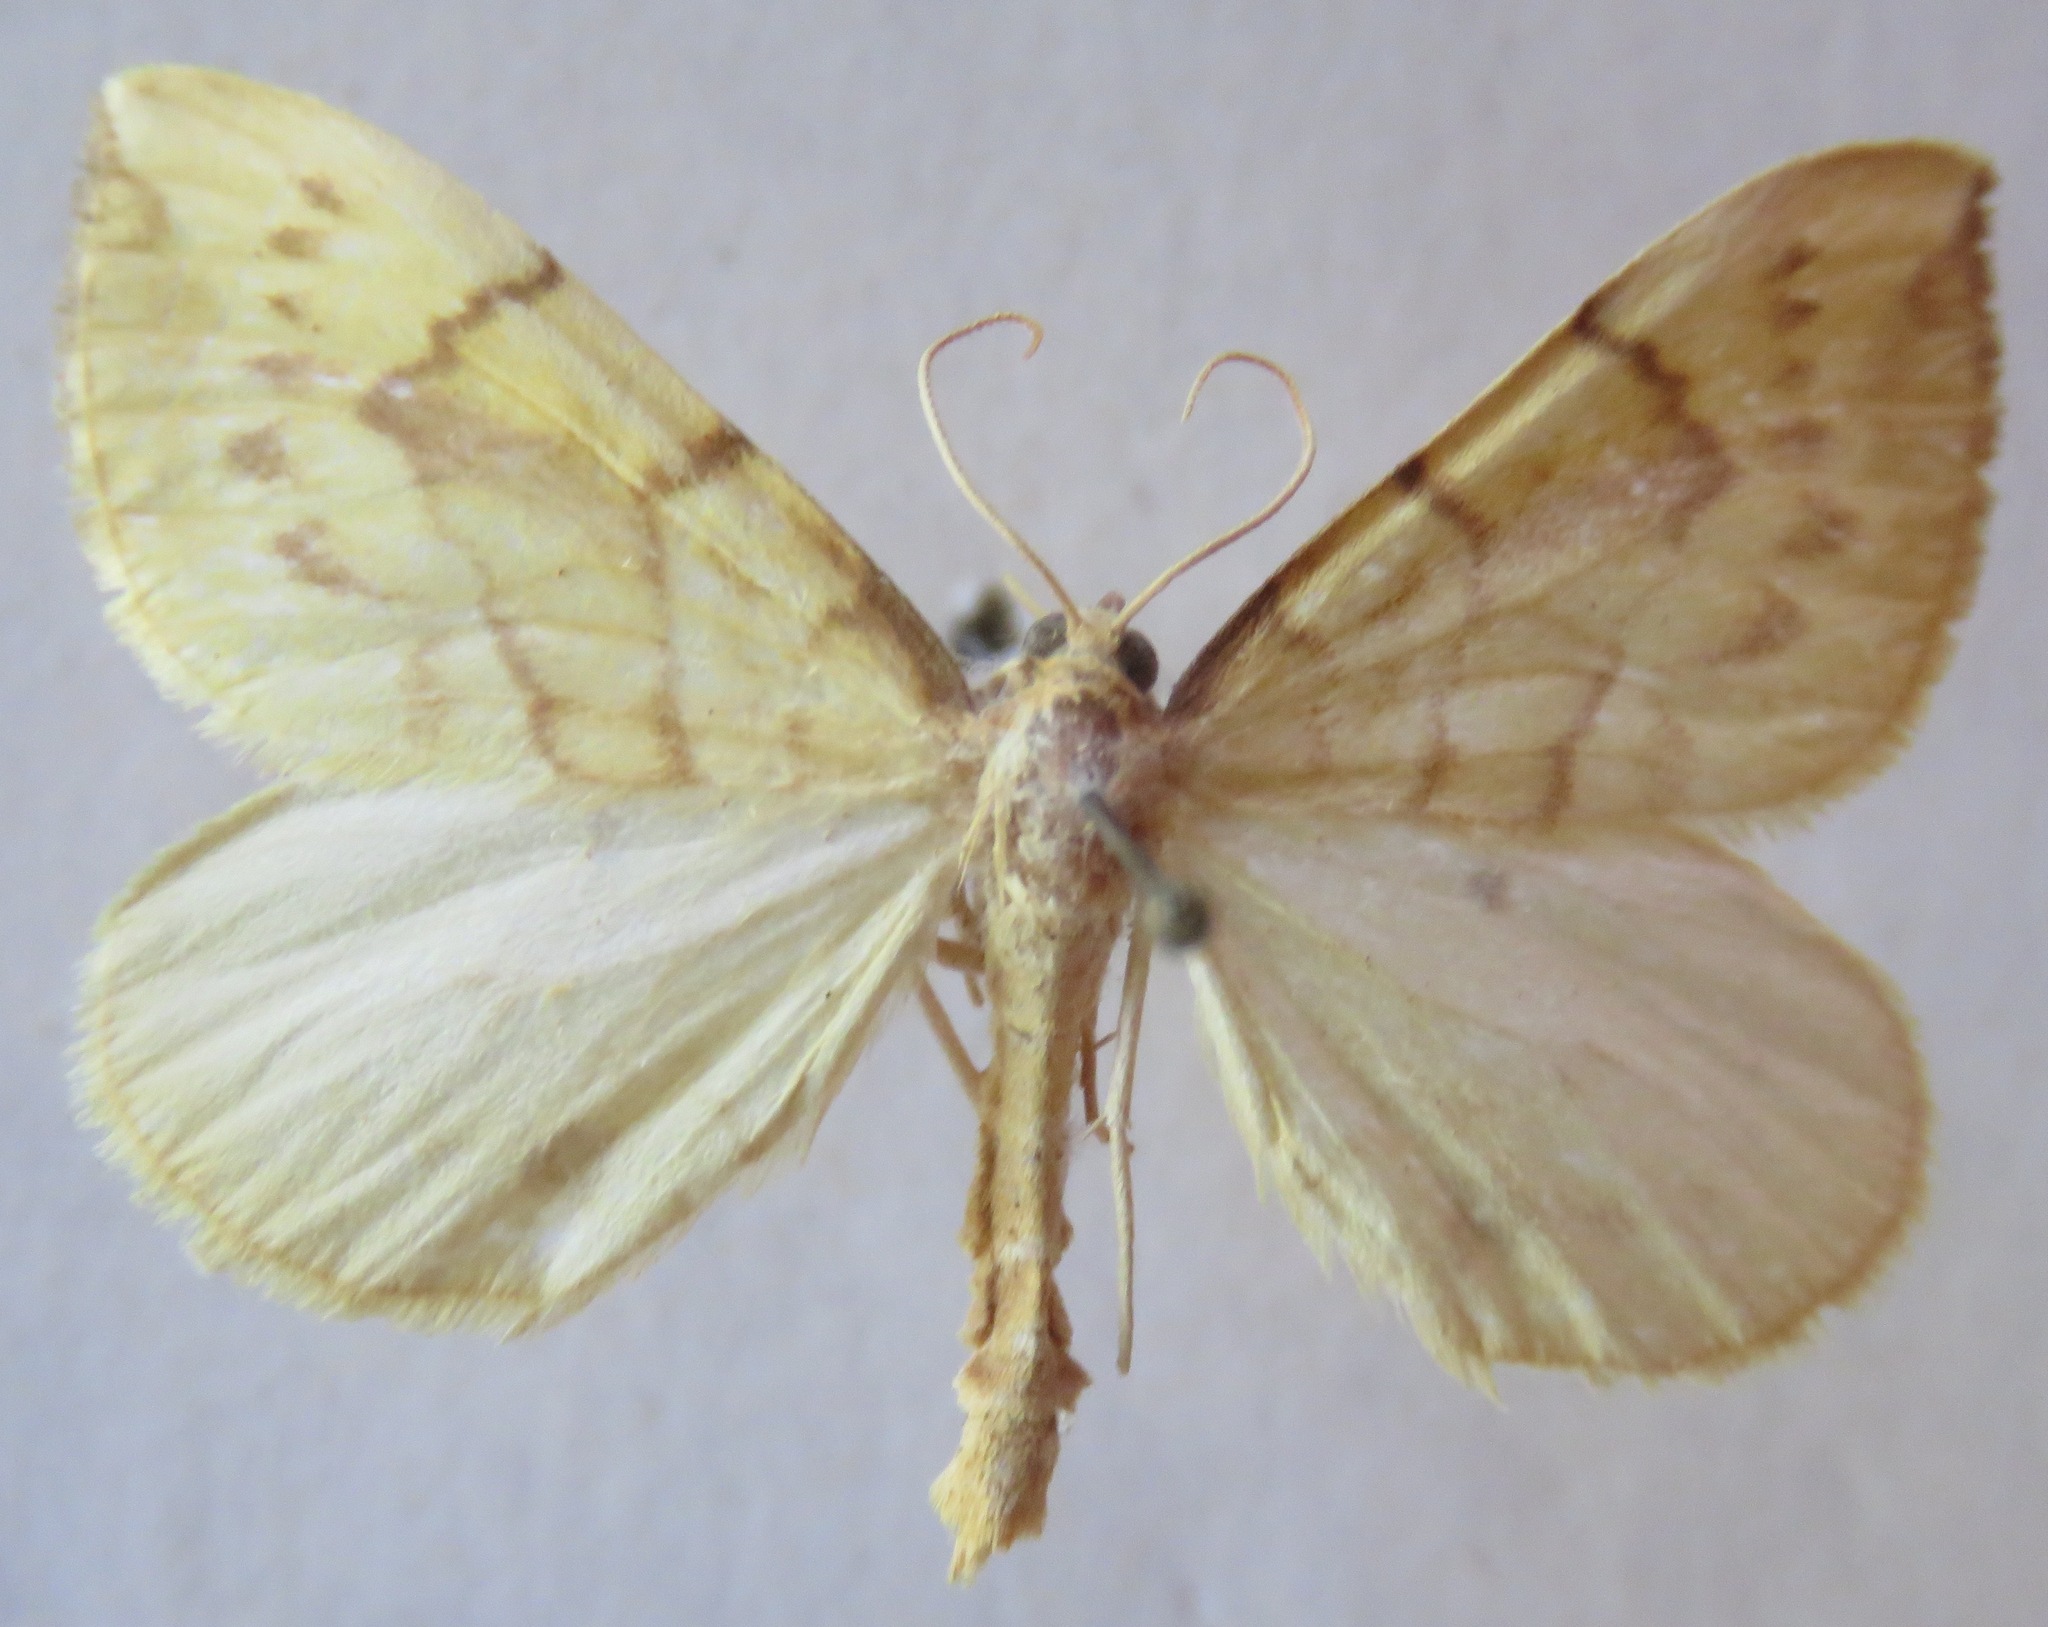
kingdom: Animalia
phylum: Arthropoda
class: Insecta
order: Lepidoptera
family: Geometridae
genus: Eulithis
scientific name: Eulithis pyraliata
